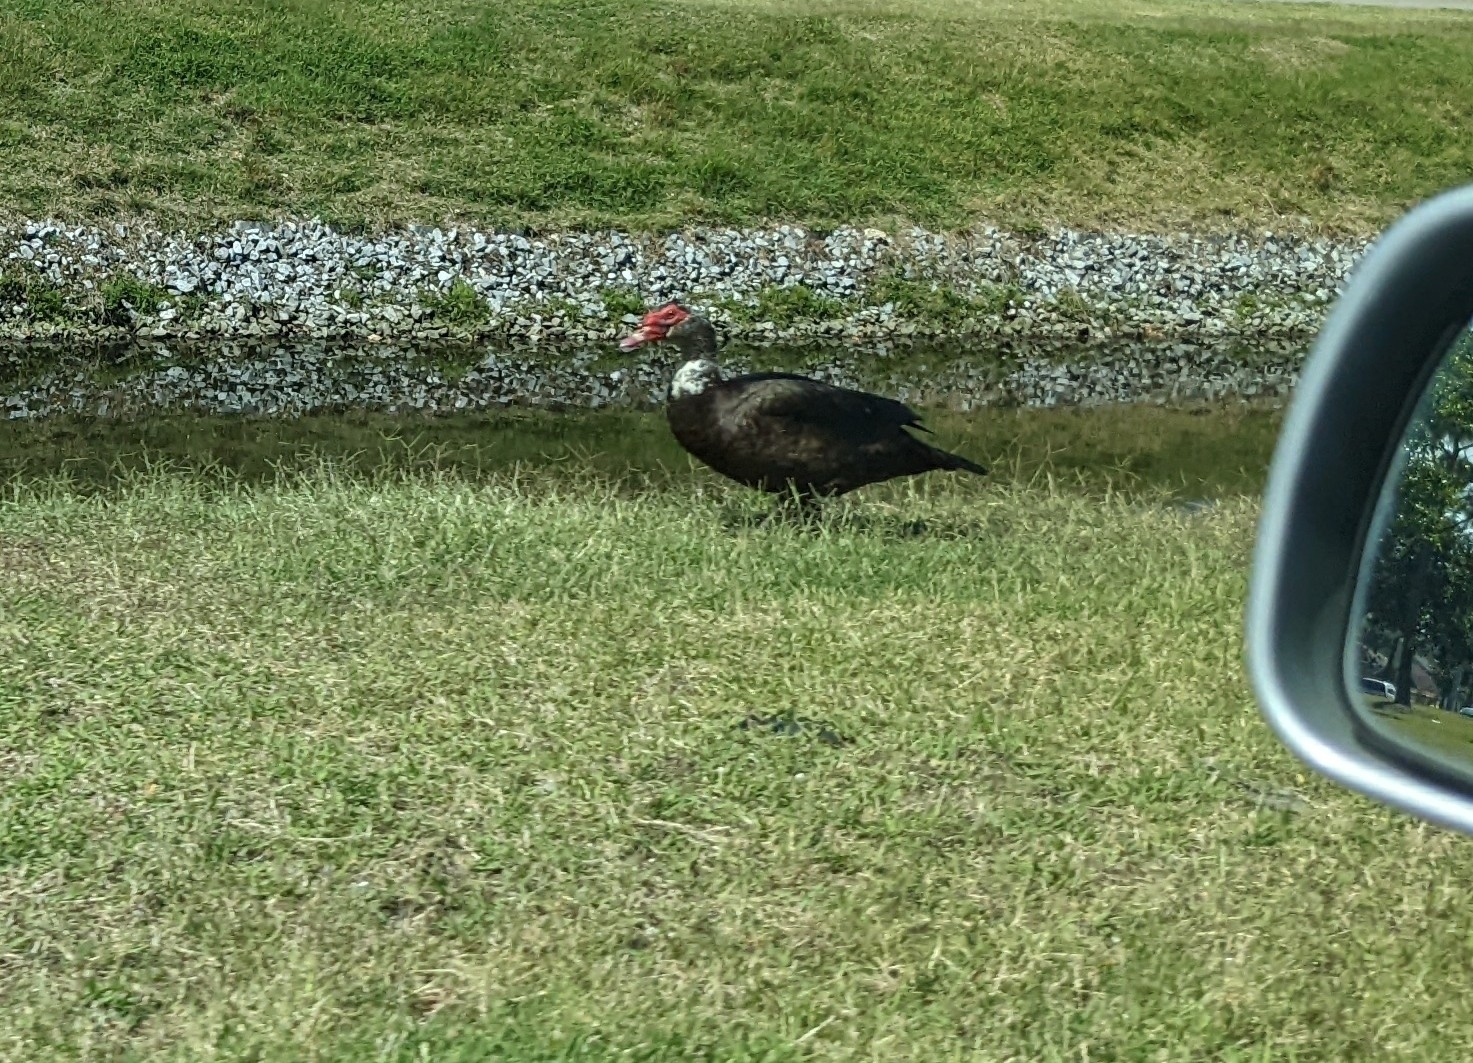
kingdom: Animalia
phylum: Chordata
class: Aves
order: Anseriformes
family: Anatidae
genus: Cairina
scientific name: Cairina moschata
